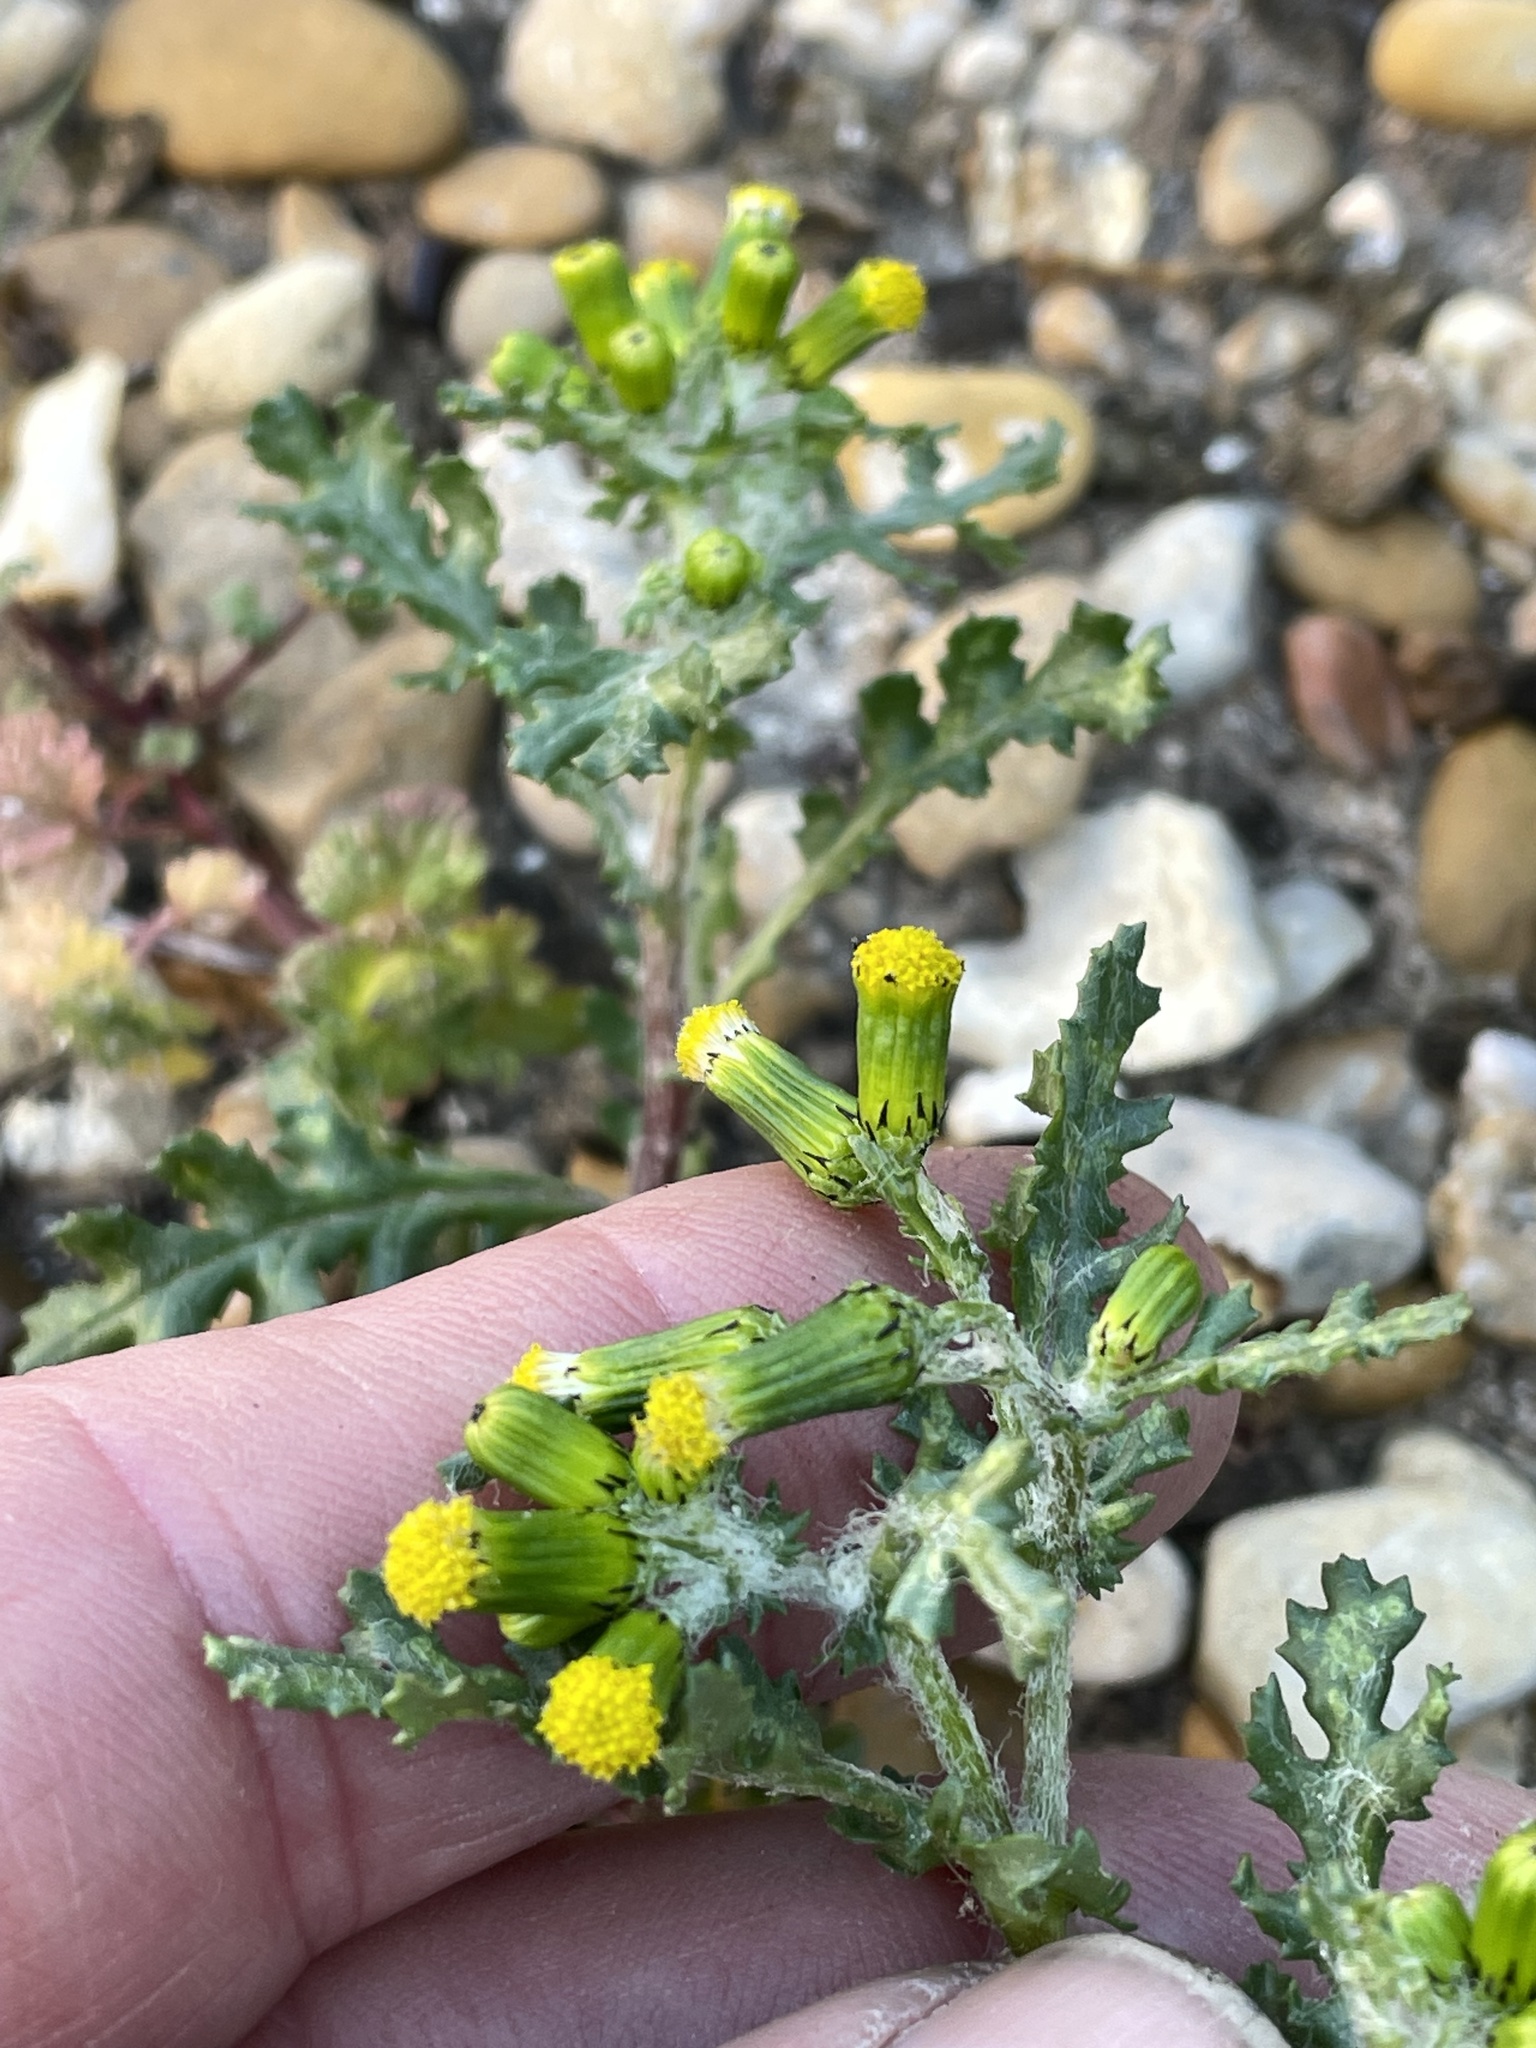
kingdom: Plantae
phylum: Tracheophyta
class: Magnoliopsida
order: Asterales
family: Asteraceae
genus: Senecio
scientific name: Senecio vulgaris
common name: Old-man-in-the-spring
